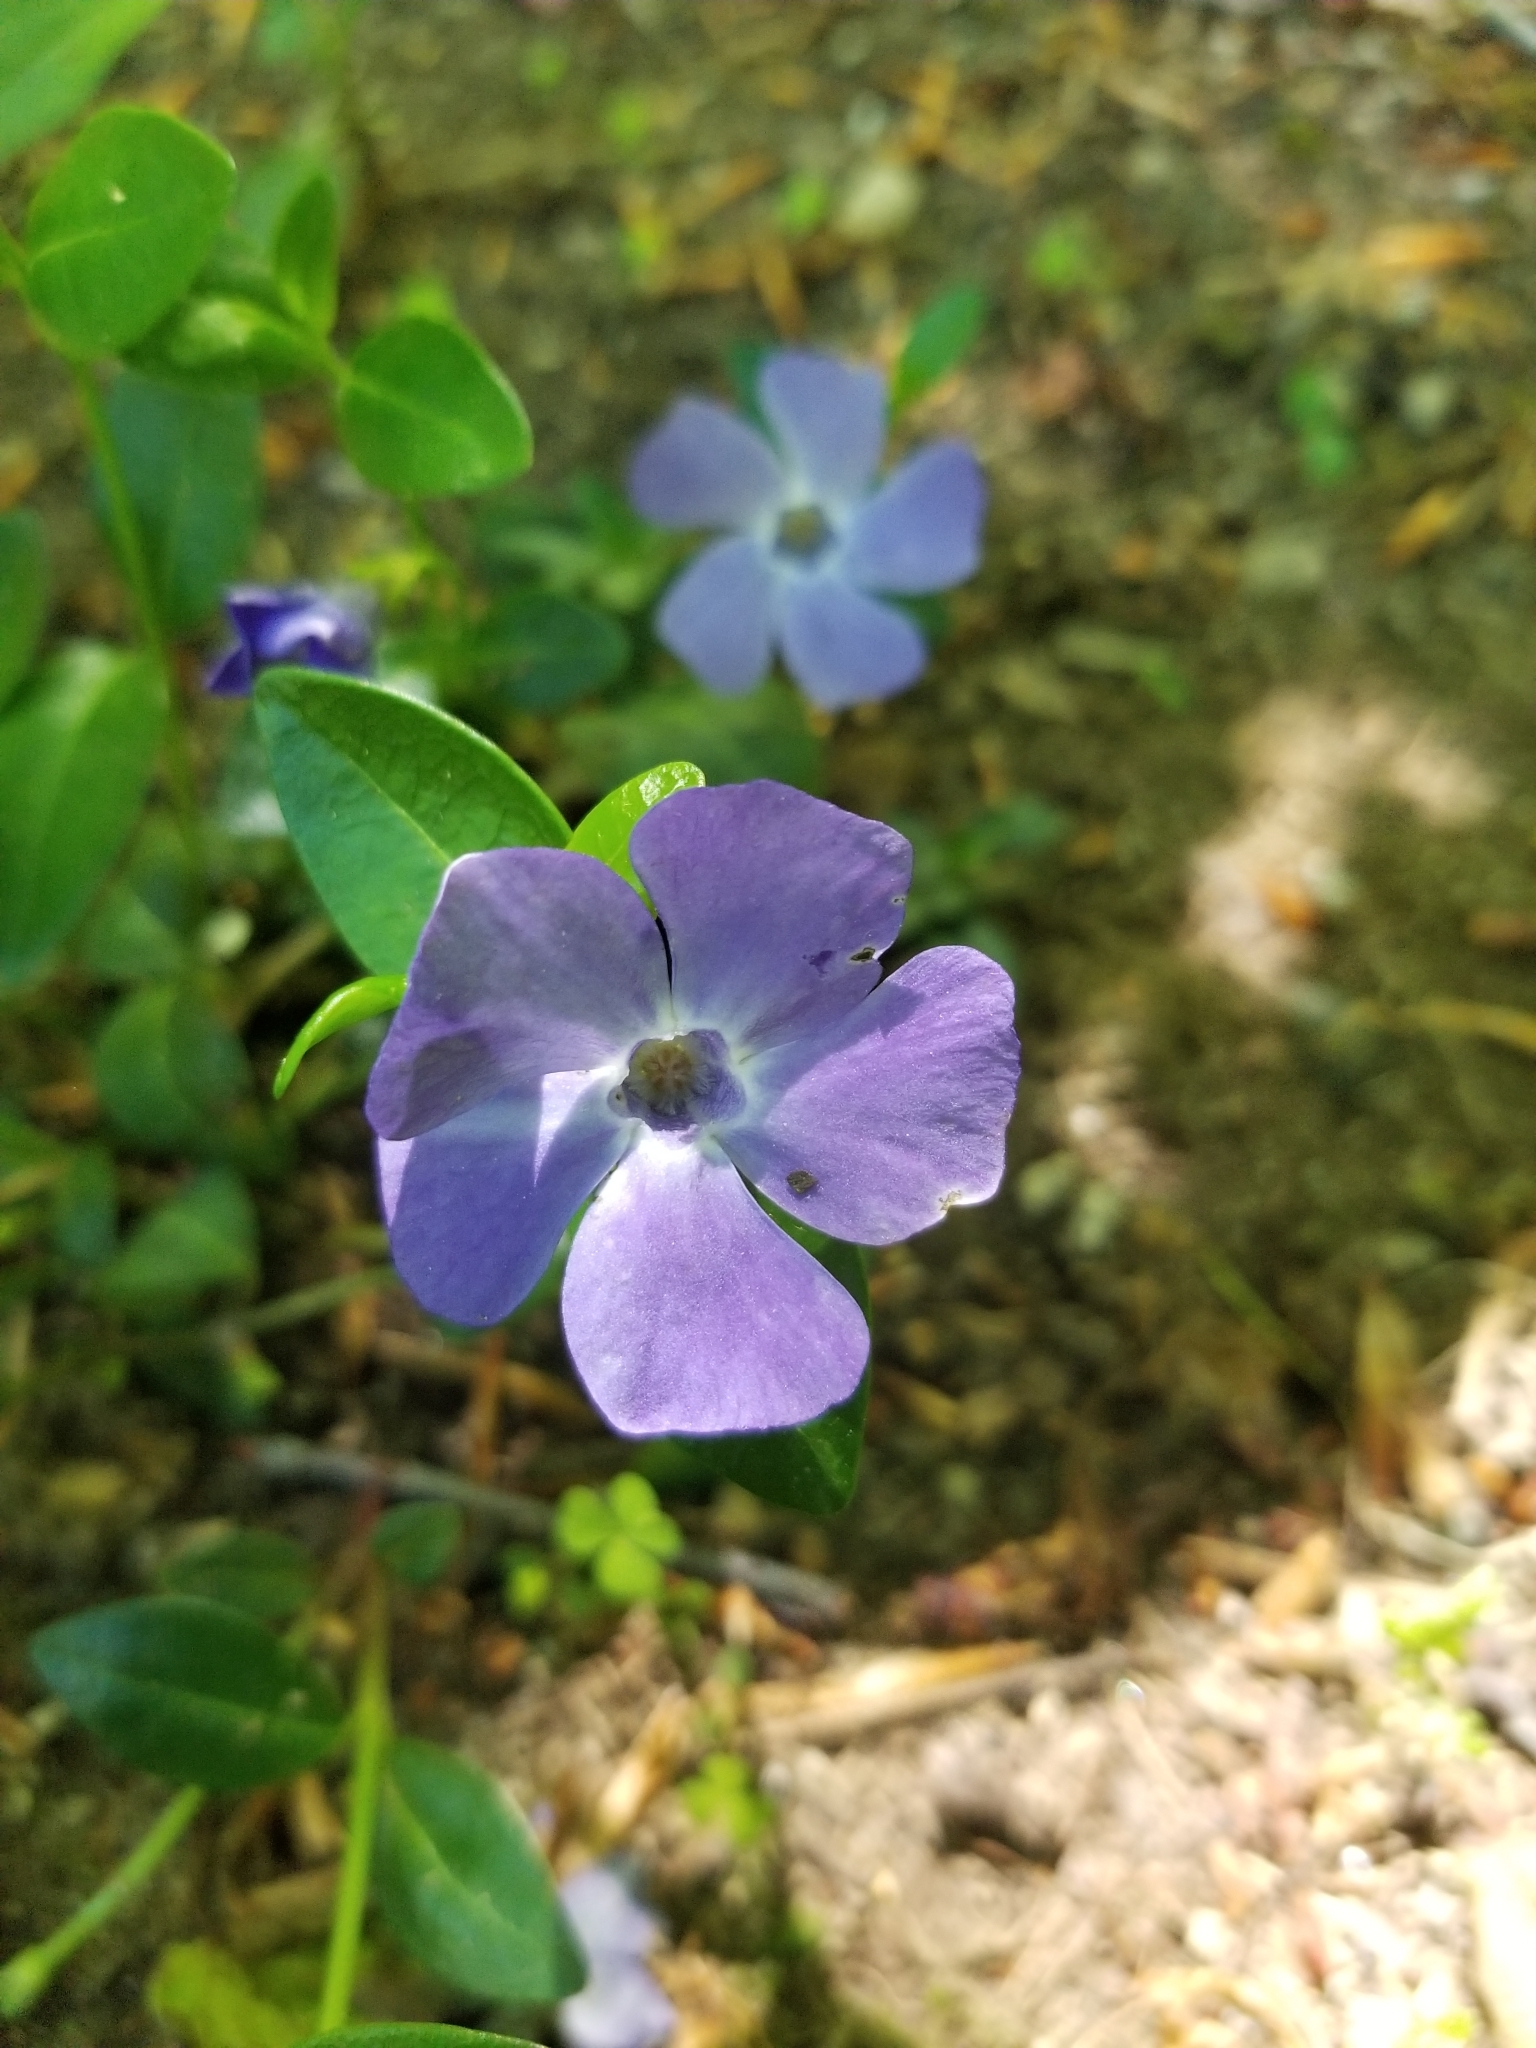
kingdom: Plantae
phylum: Tracheophyta
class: Magnoliopsida
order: Gentianales
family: Apocynaceae
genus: Vinca
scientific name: Vinca minor
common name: Lesser periwinkle
